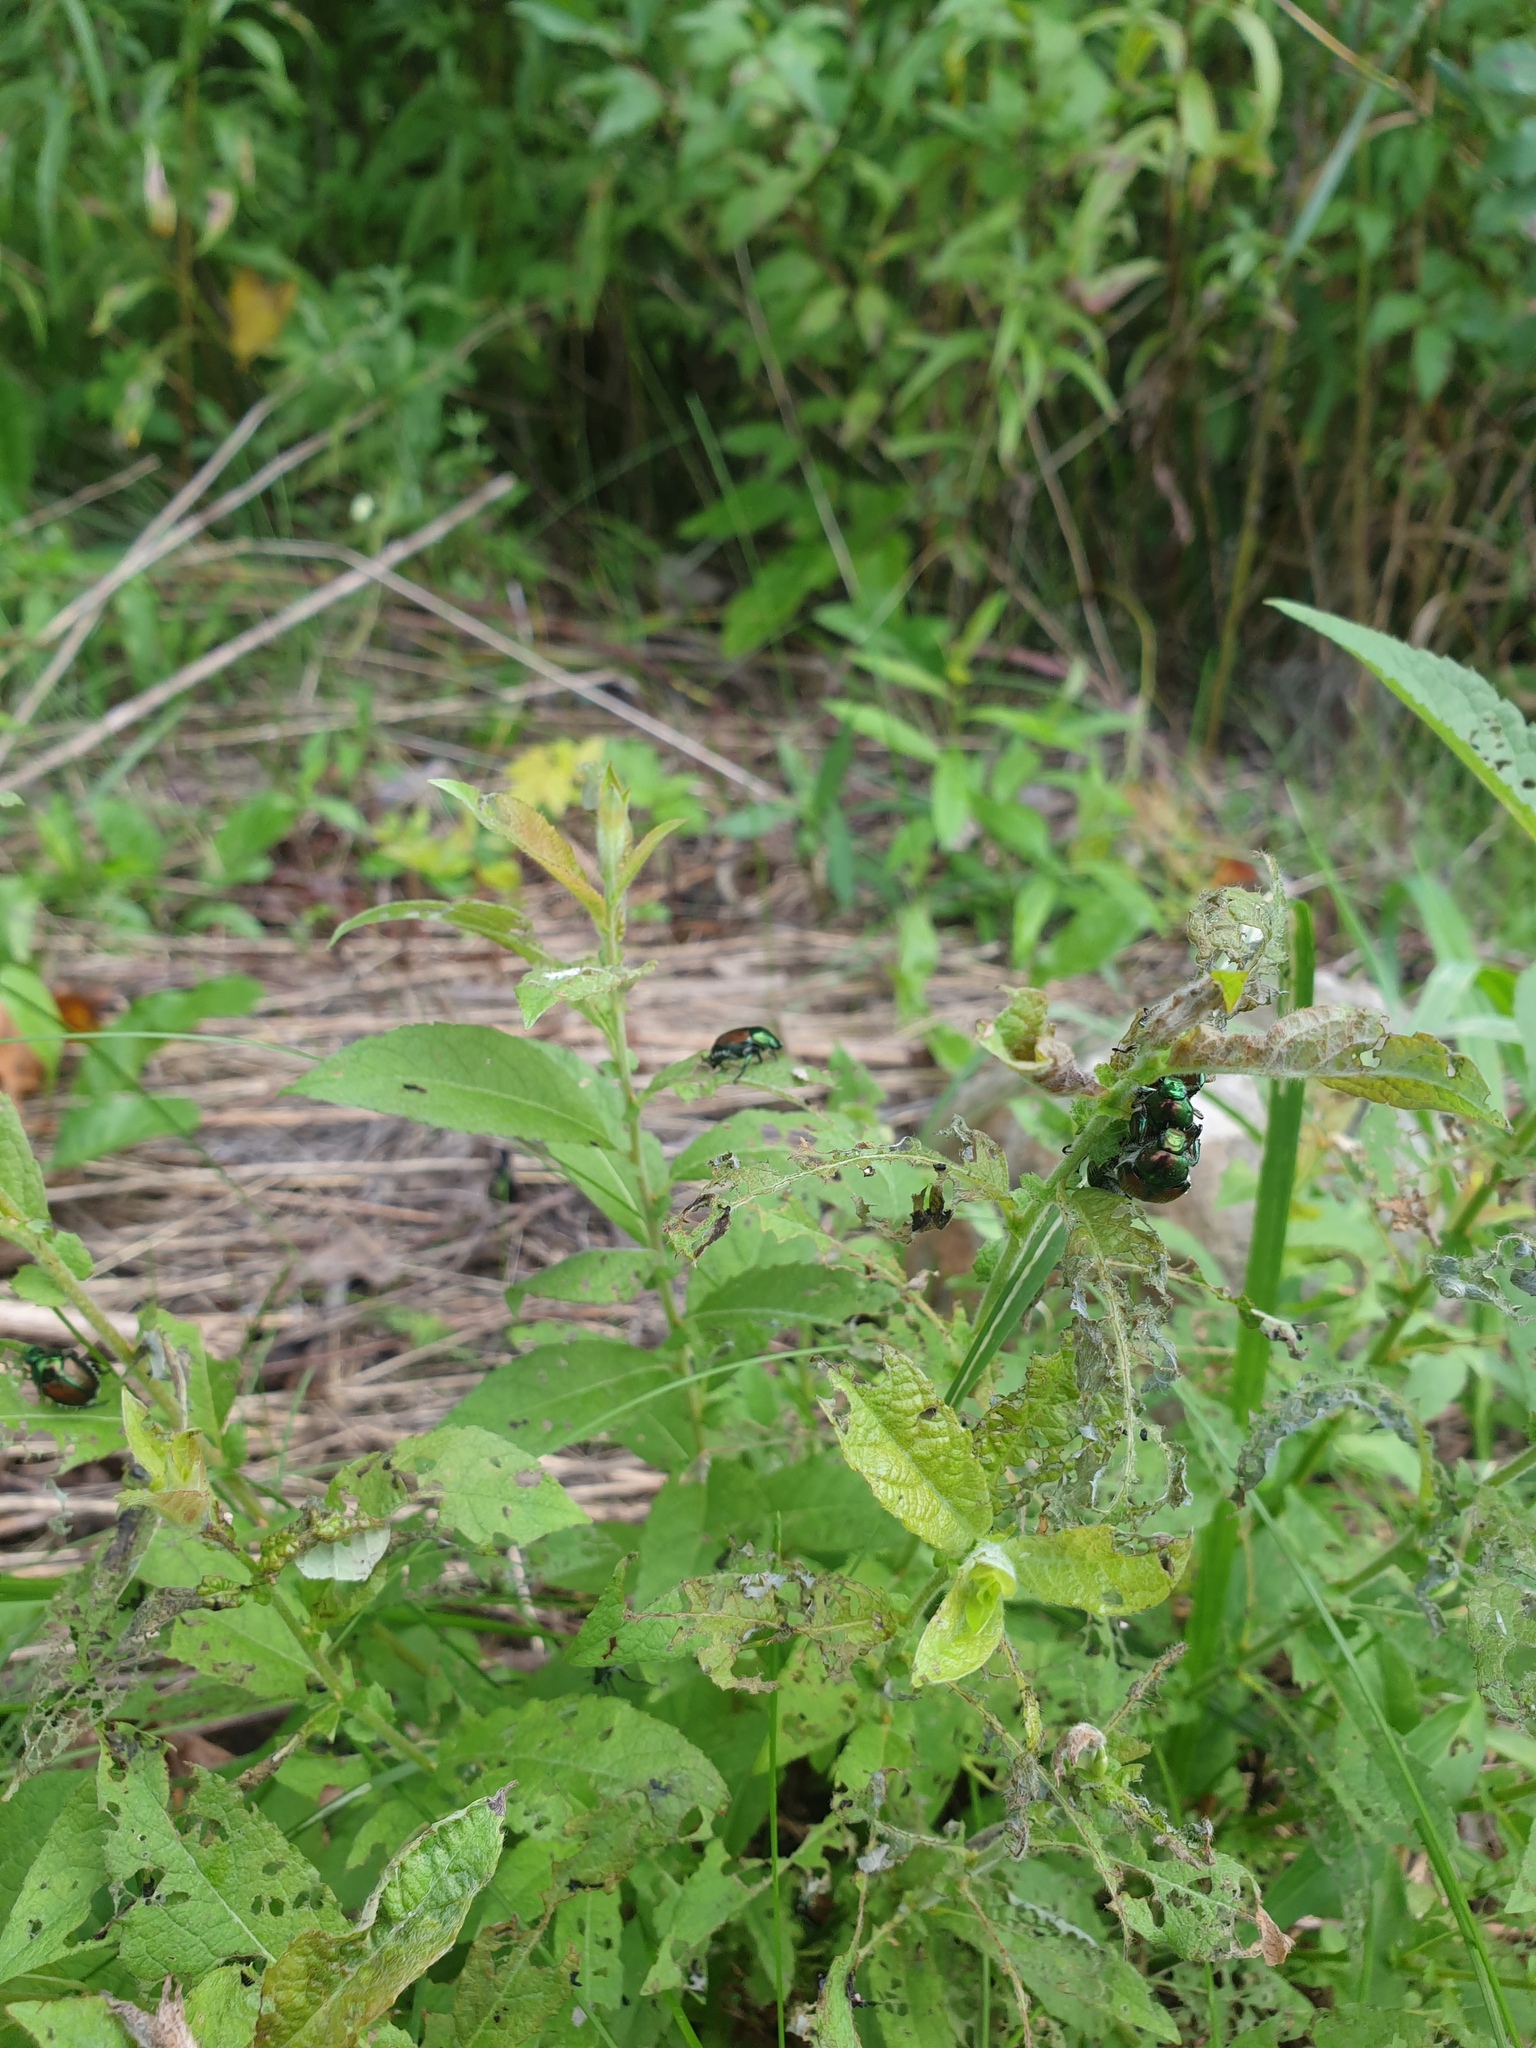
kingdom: Animalia
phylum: Arthropoda
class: Insecta
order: Coleoptera
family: Scarabaeidae
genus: Popillia
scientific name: Popillia japonica
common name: Japanese beetle
